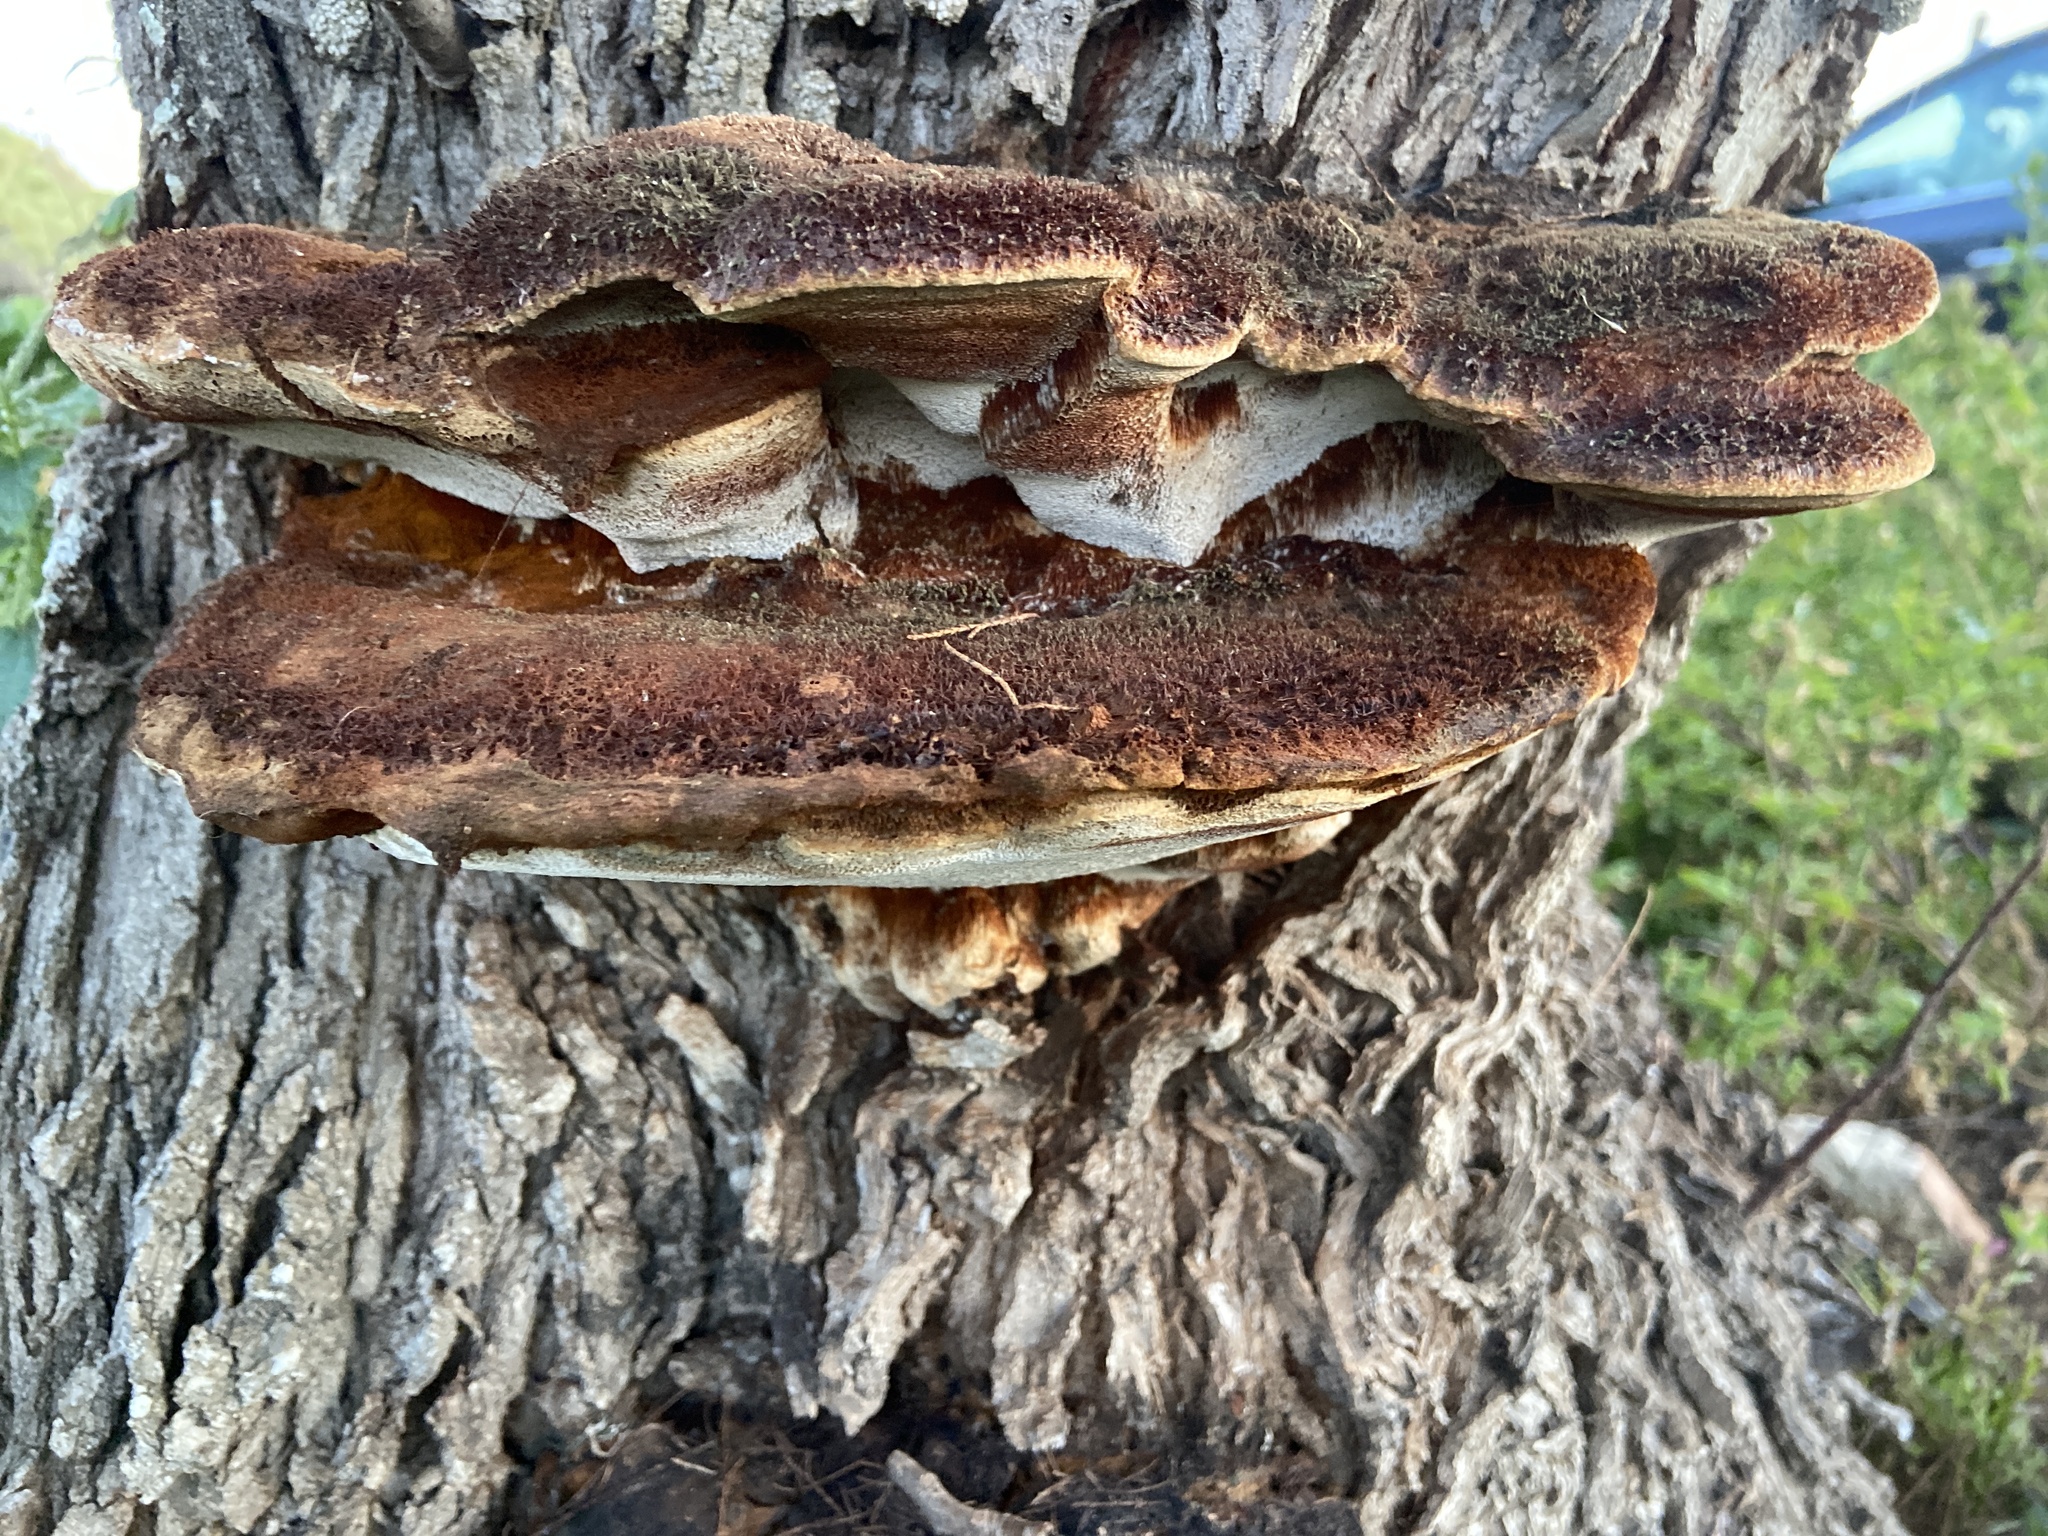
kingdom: Fungi
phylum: Basidiomycota
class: Agaricomycetes
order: Hymenochaetales
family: Hymenochaetaceae
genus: Inonotus
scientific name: Inonotus hispidus
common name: Shaggy bracket
